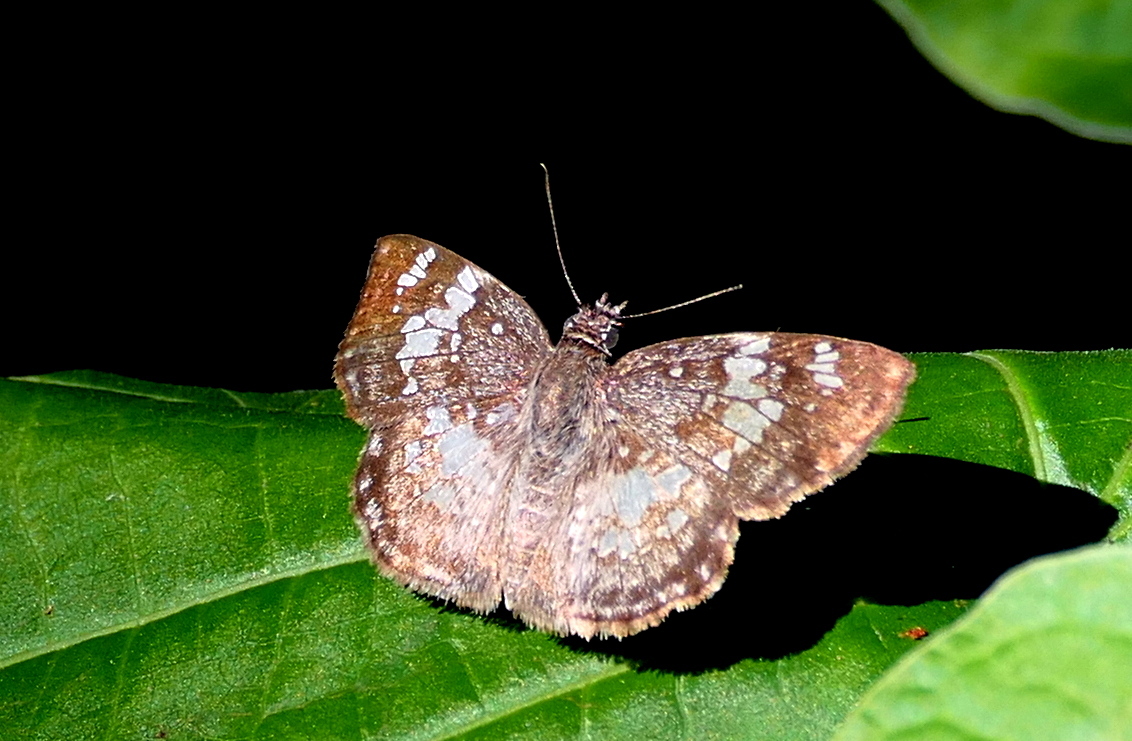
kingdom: Animalia
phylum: Arthropoda
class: Insecta
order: Lepidoptera
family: Hesperiidae
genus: Xenophanes
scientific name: Xenophanes tryxus
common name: Glassy-winged skipper
